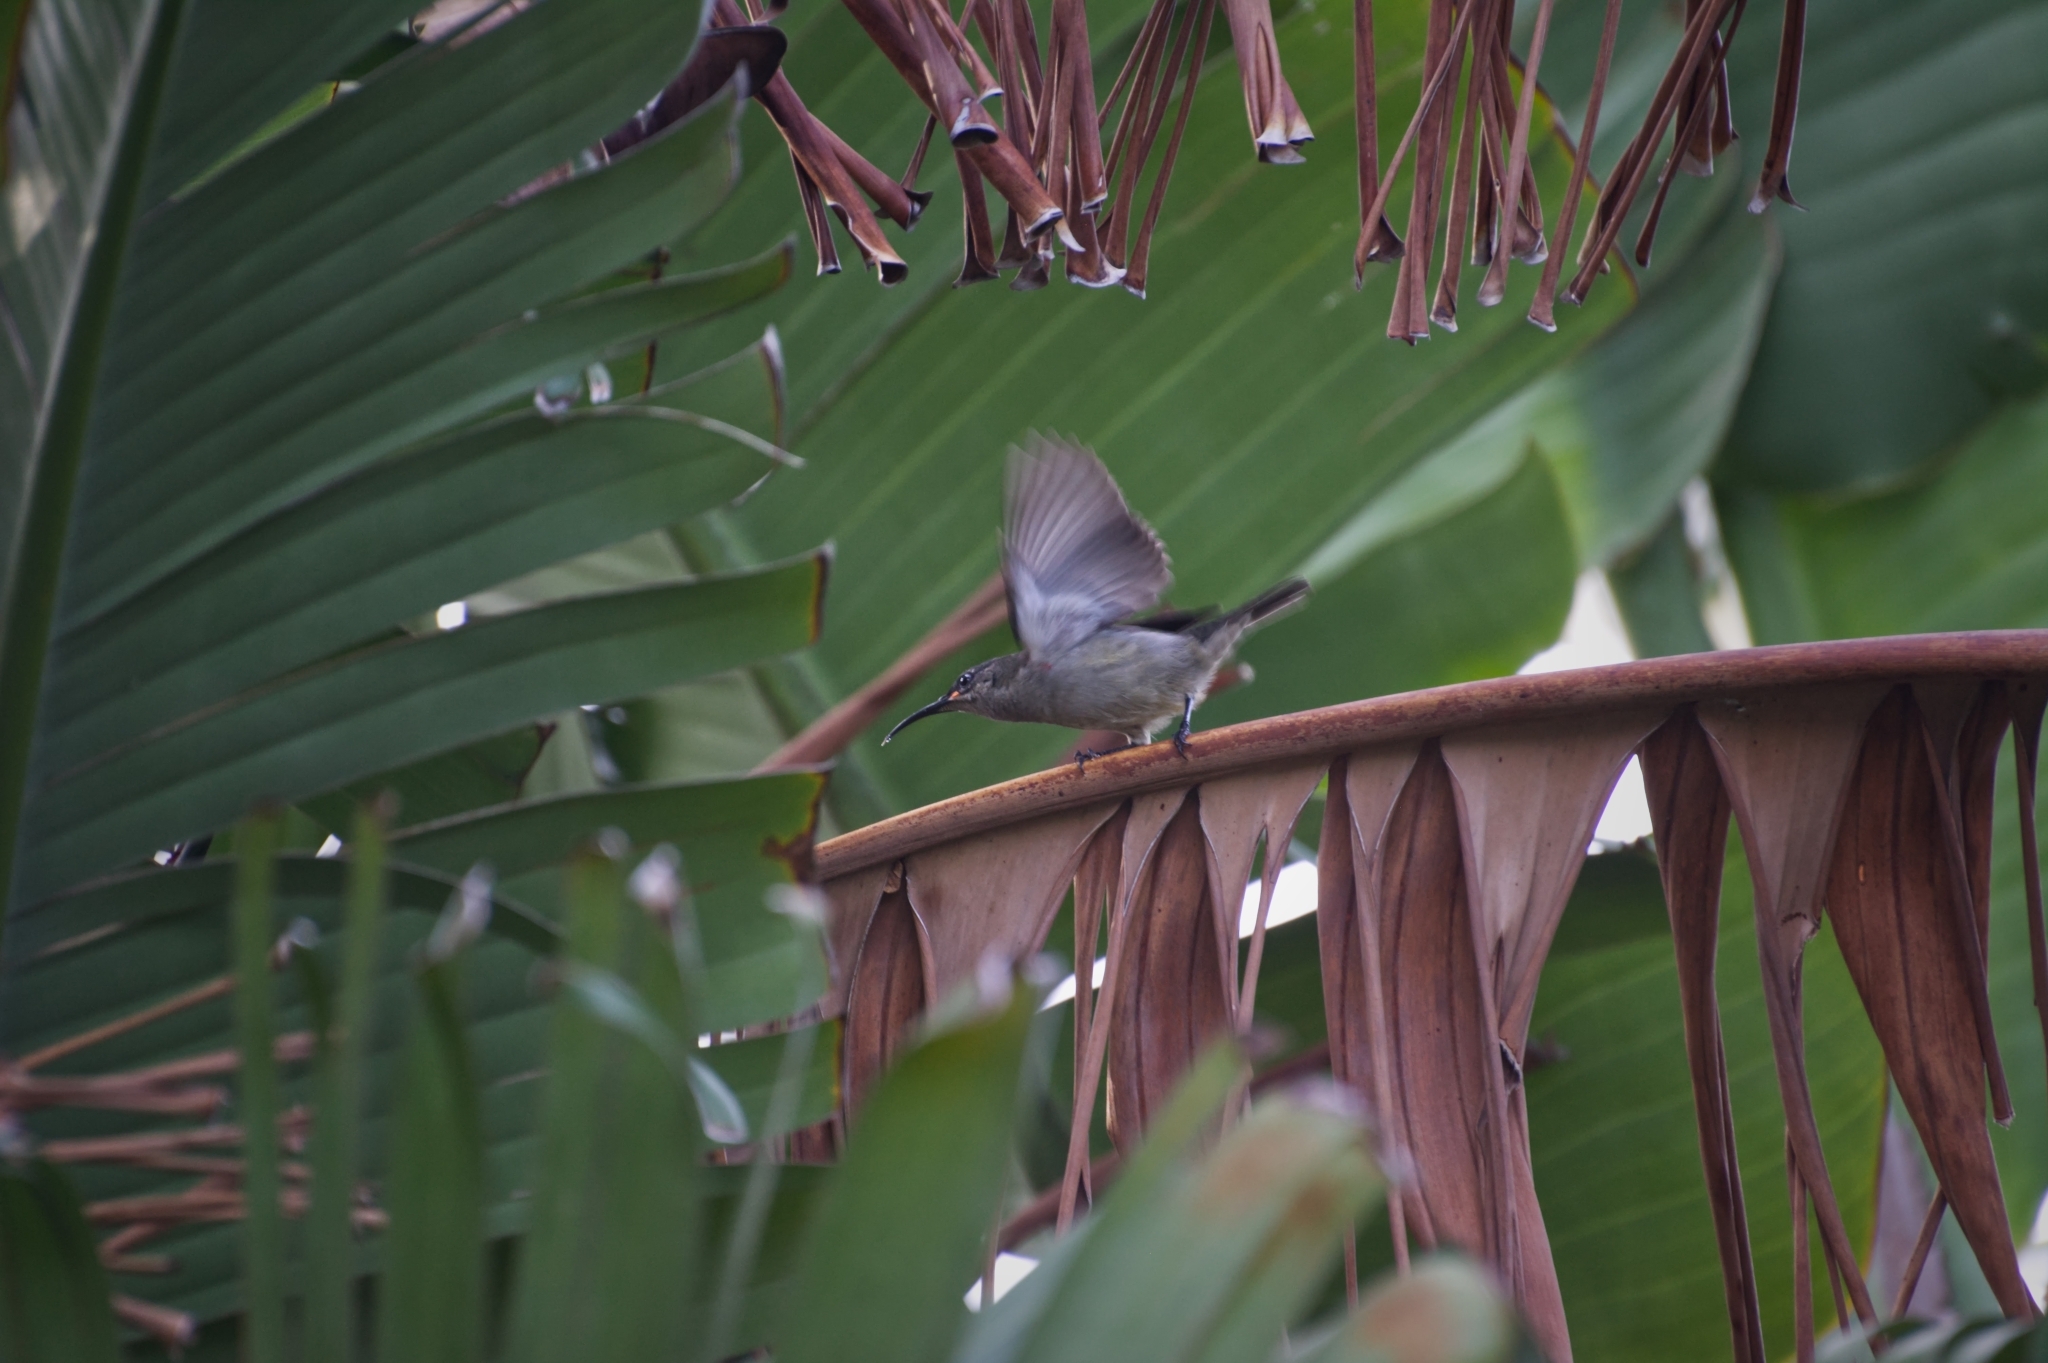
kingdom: Animalia
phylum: Chordata
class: Aves
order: Passeriformes
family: Nectariniidae
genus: Cinnyris
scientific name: Cinnyris afer
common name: Greater double-collared sunbird
